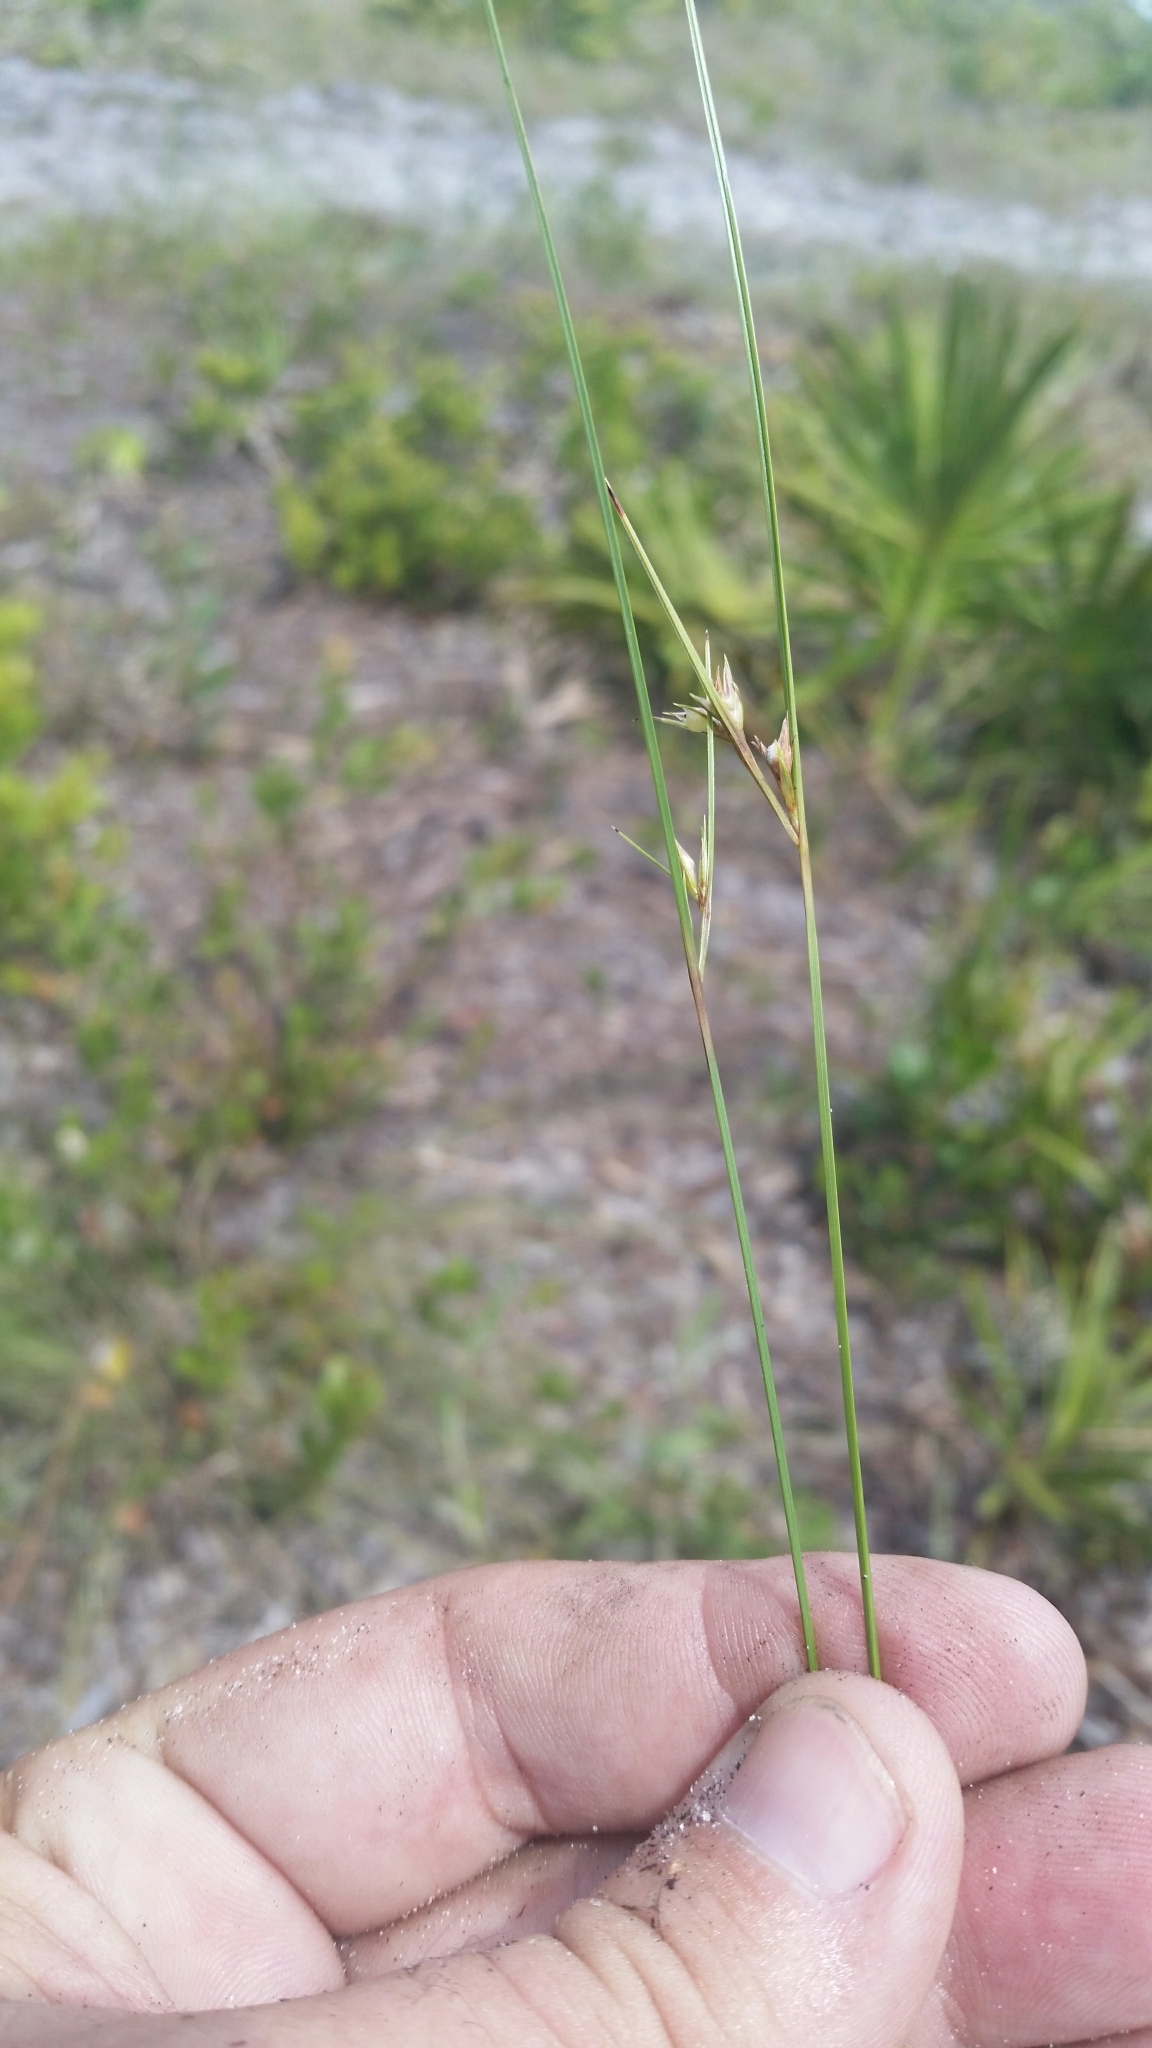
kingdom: Plantae
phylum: Tracheophyta
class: Liliopsida
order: Poales
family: Cyperaceae
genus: Scleria
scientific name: Scleria ciliata
